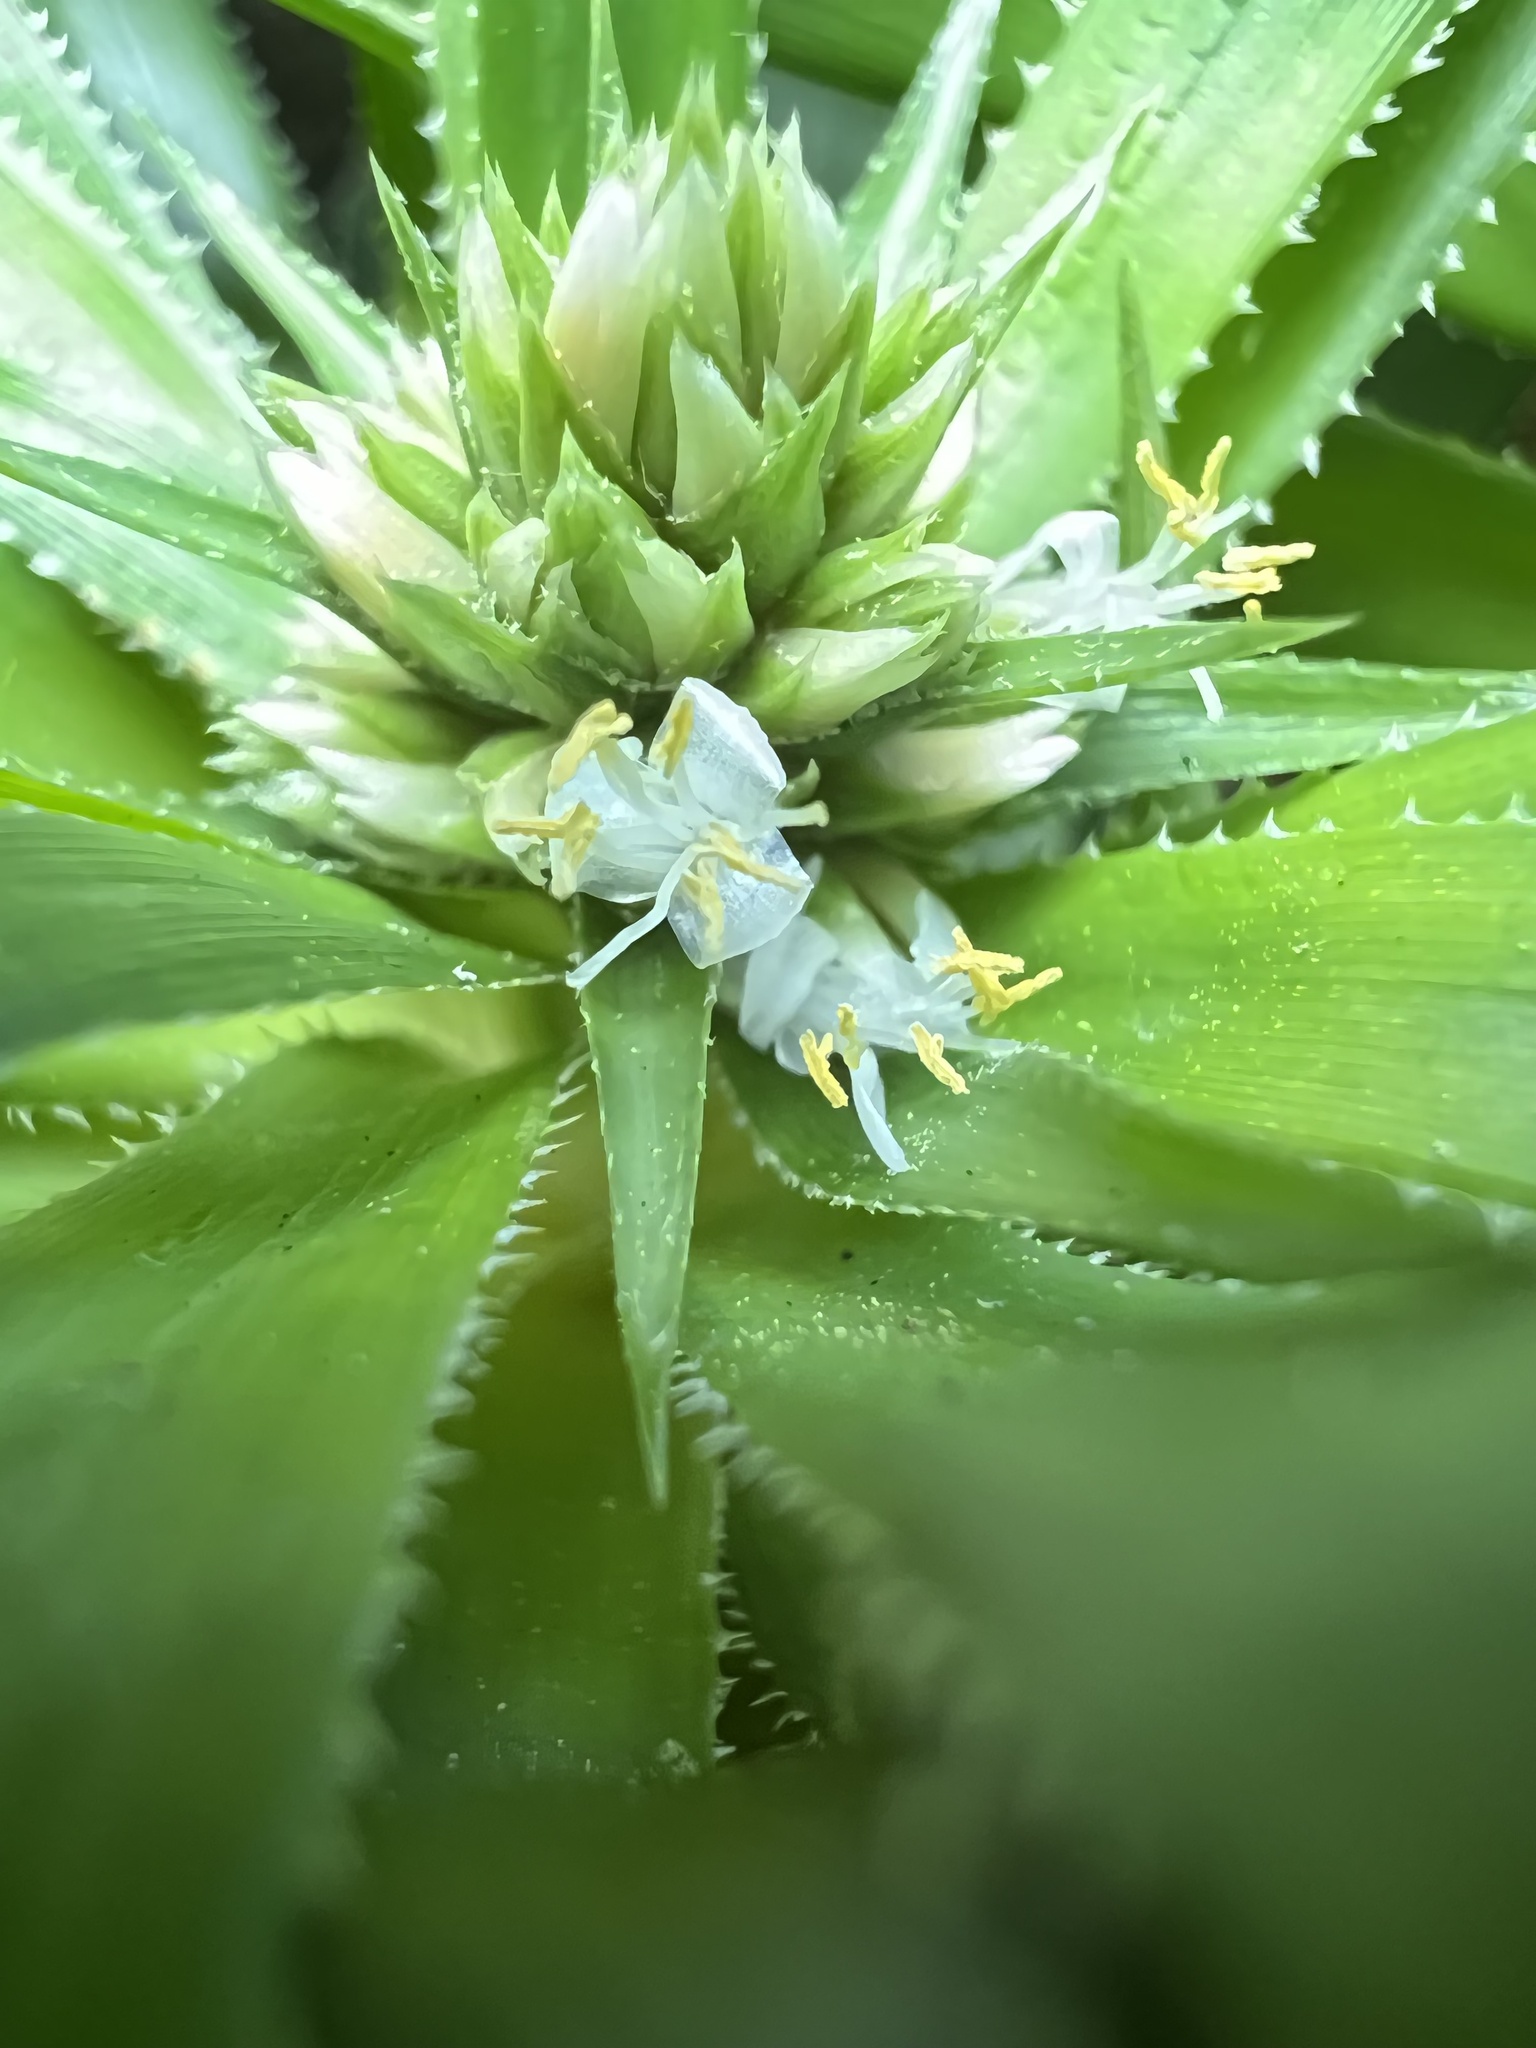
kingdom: Plantae
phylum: Tracheophyta
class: Liliopsida
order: Poales
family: Bromeliaceae
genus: Navia
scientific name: Navia acaulis
